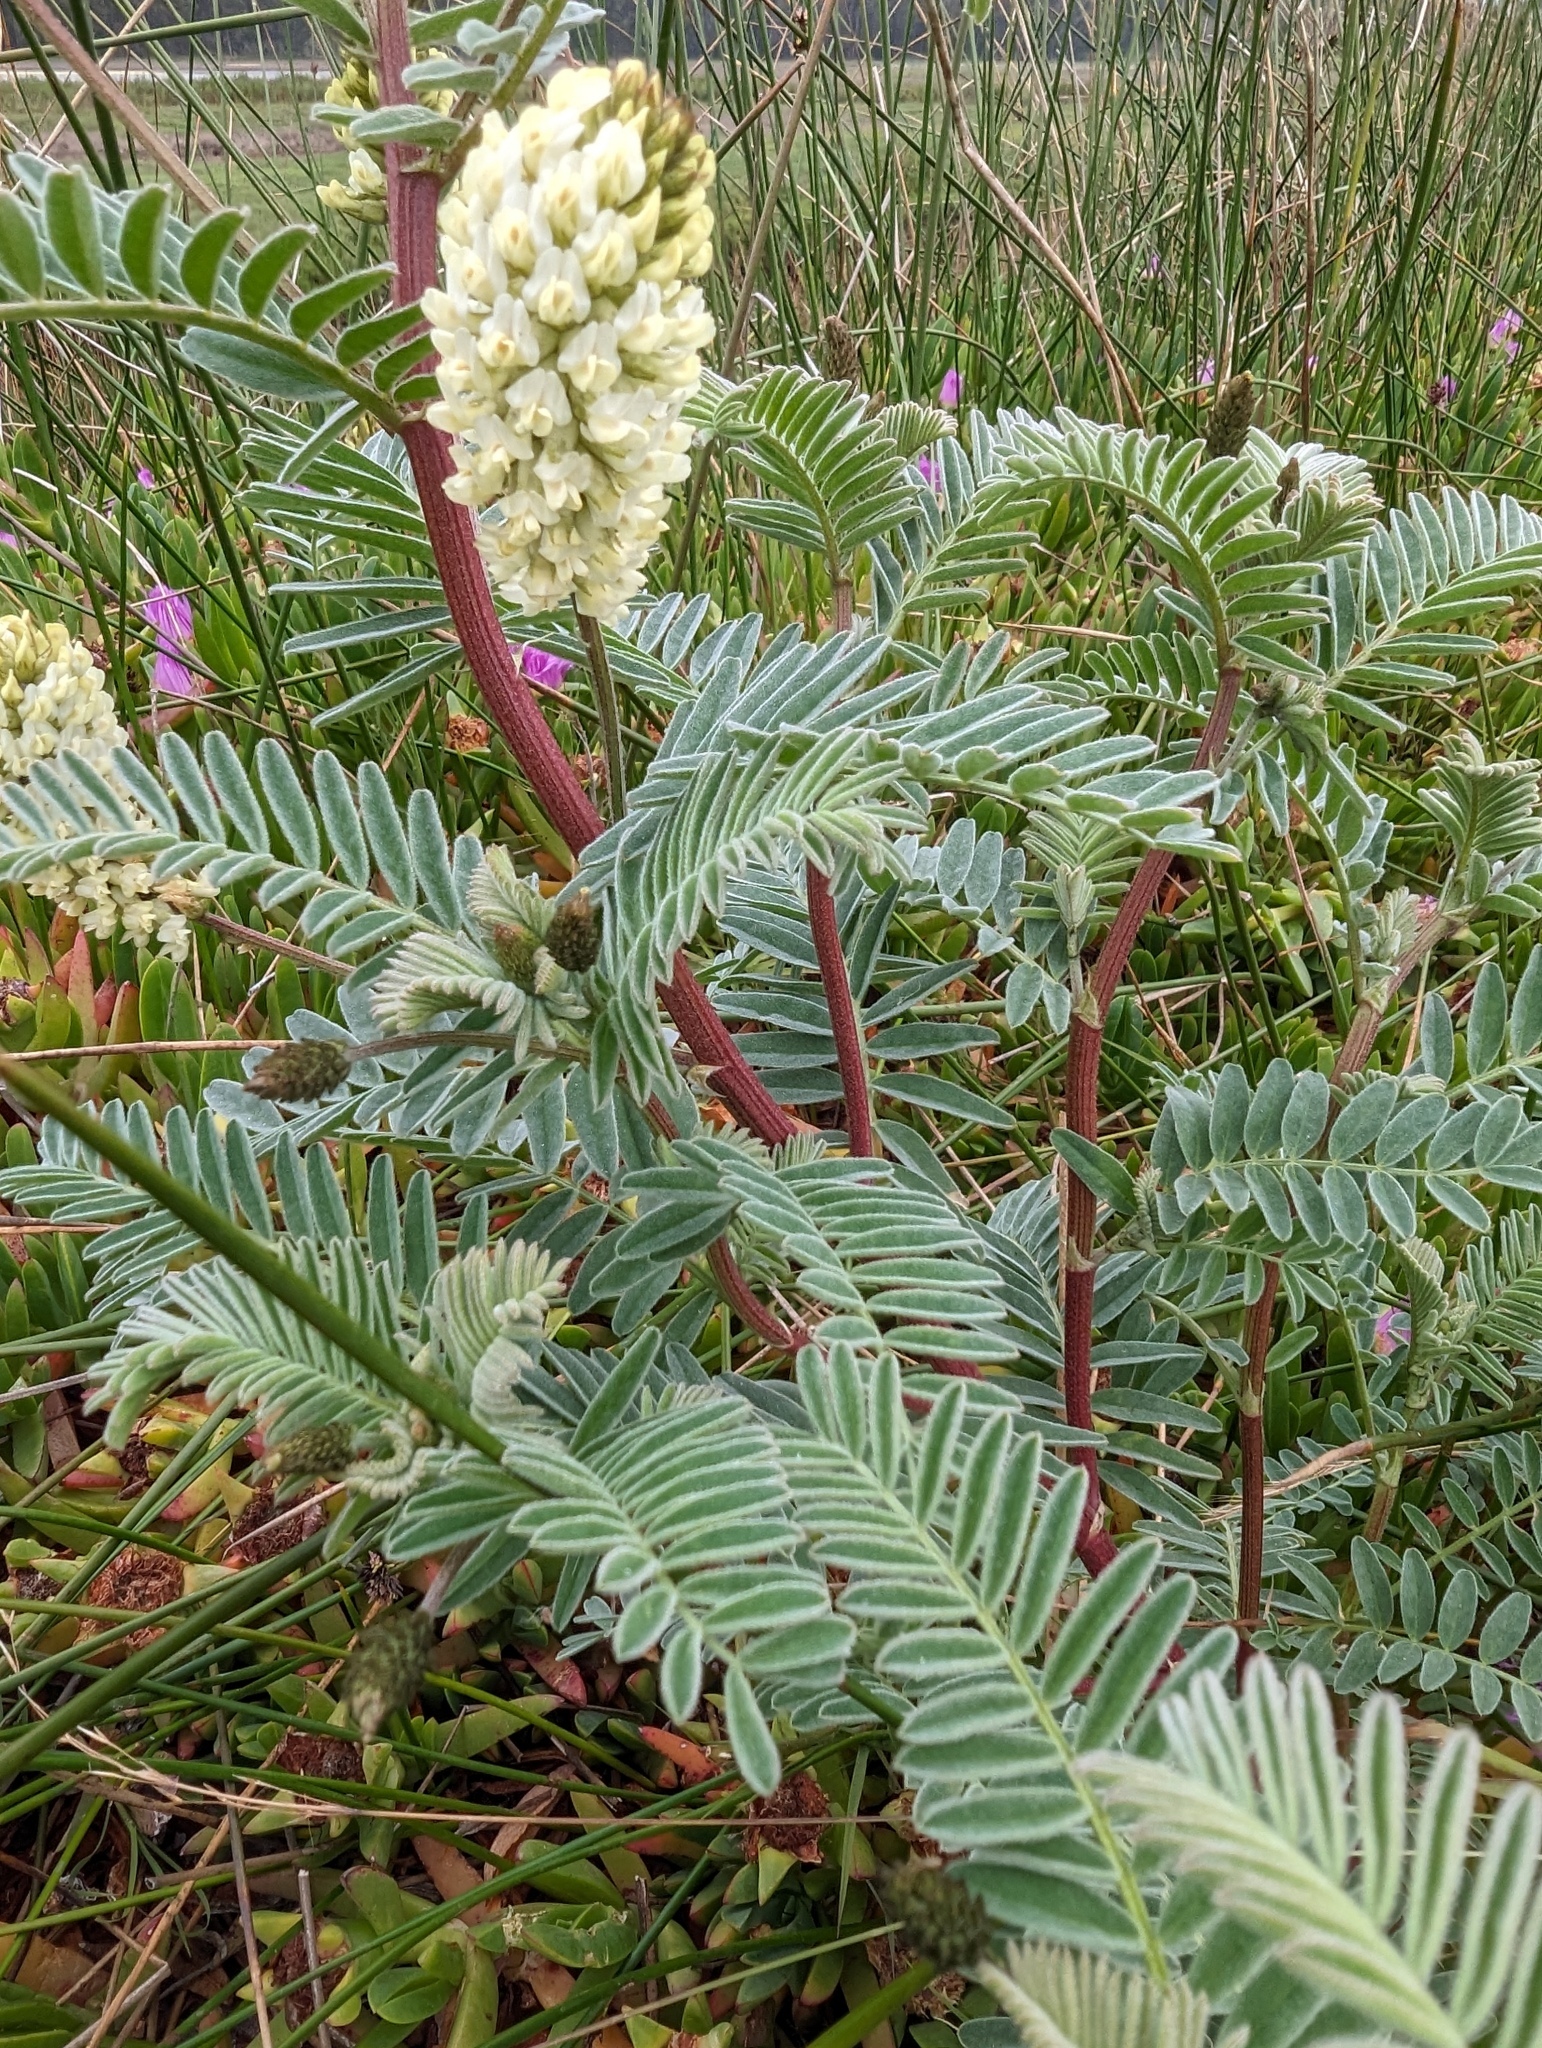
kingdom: Plantae
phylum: Tracheophyta
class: Magnoliopsida
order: Fabales
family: Fabaceae
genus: Astragalus
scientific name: Astragalus pycnostachyus
